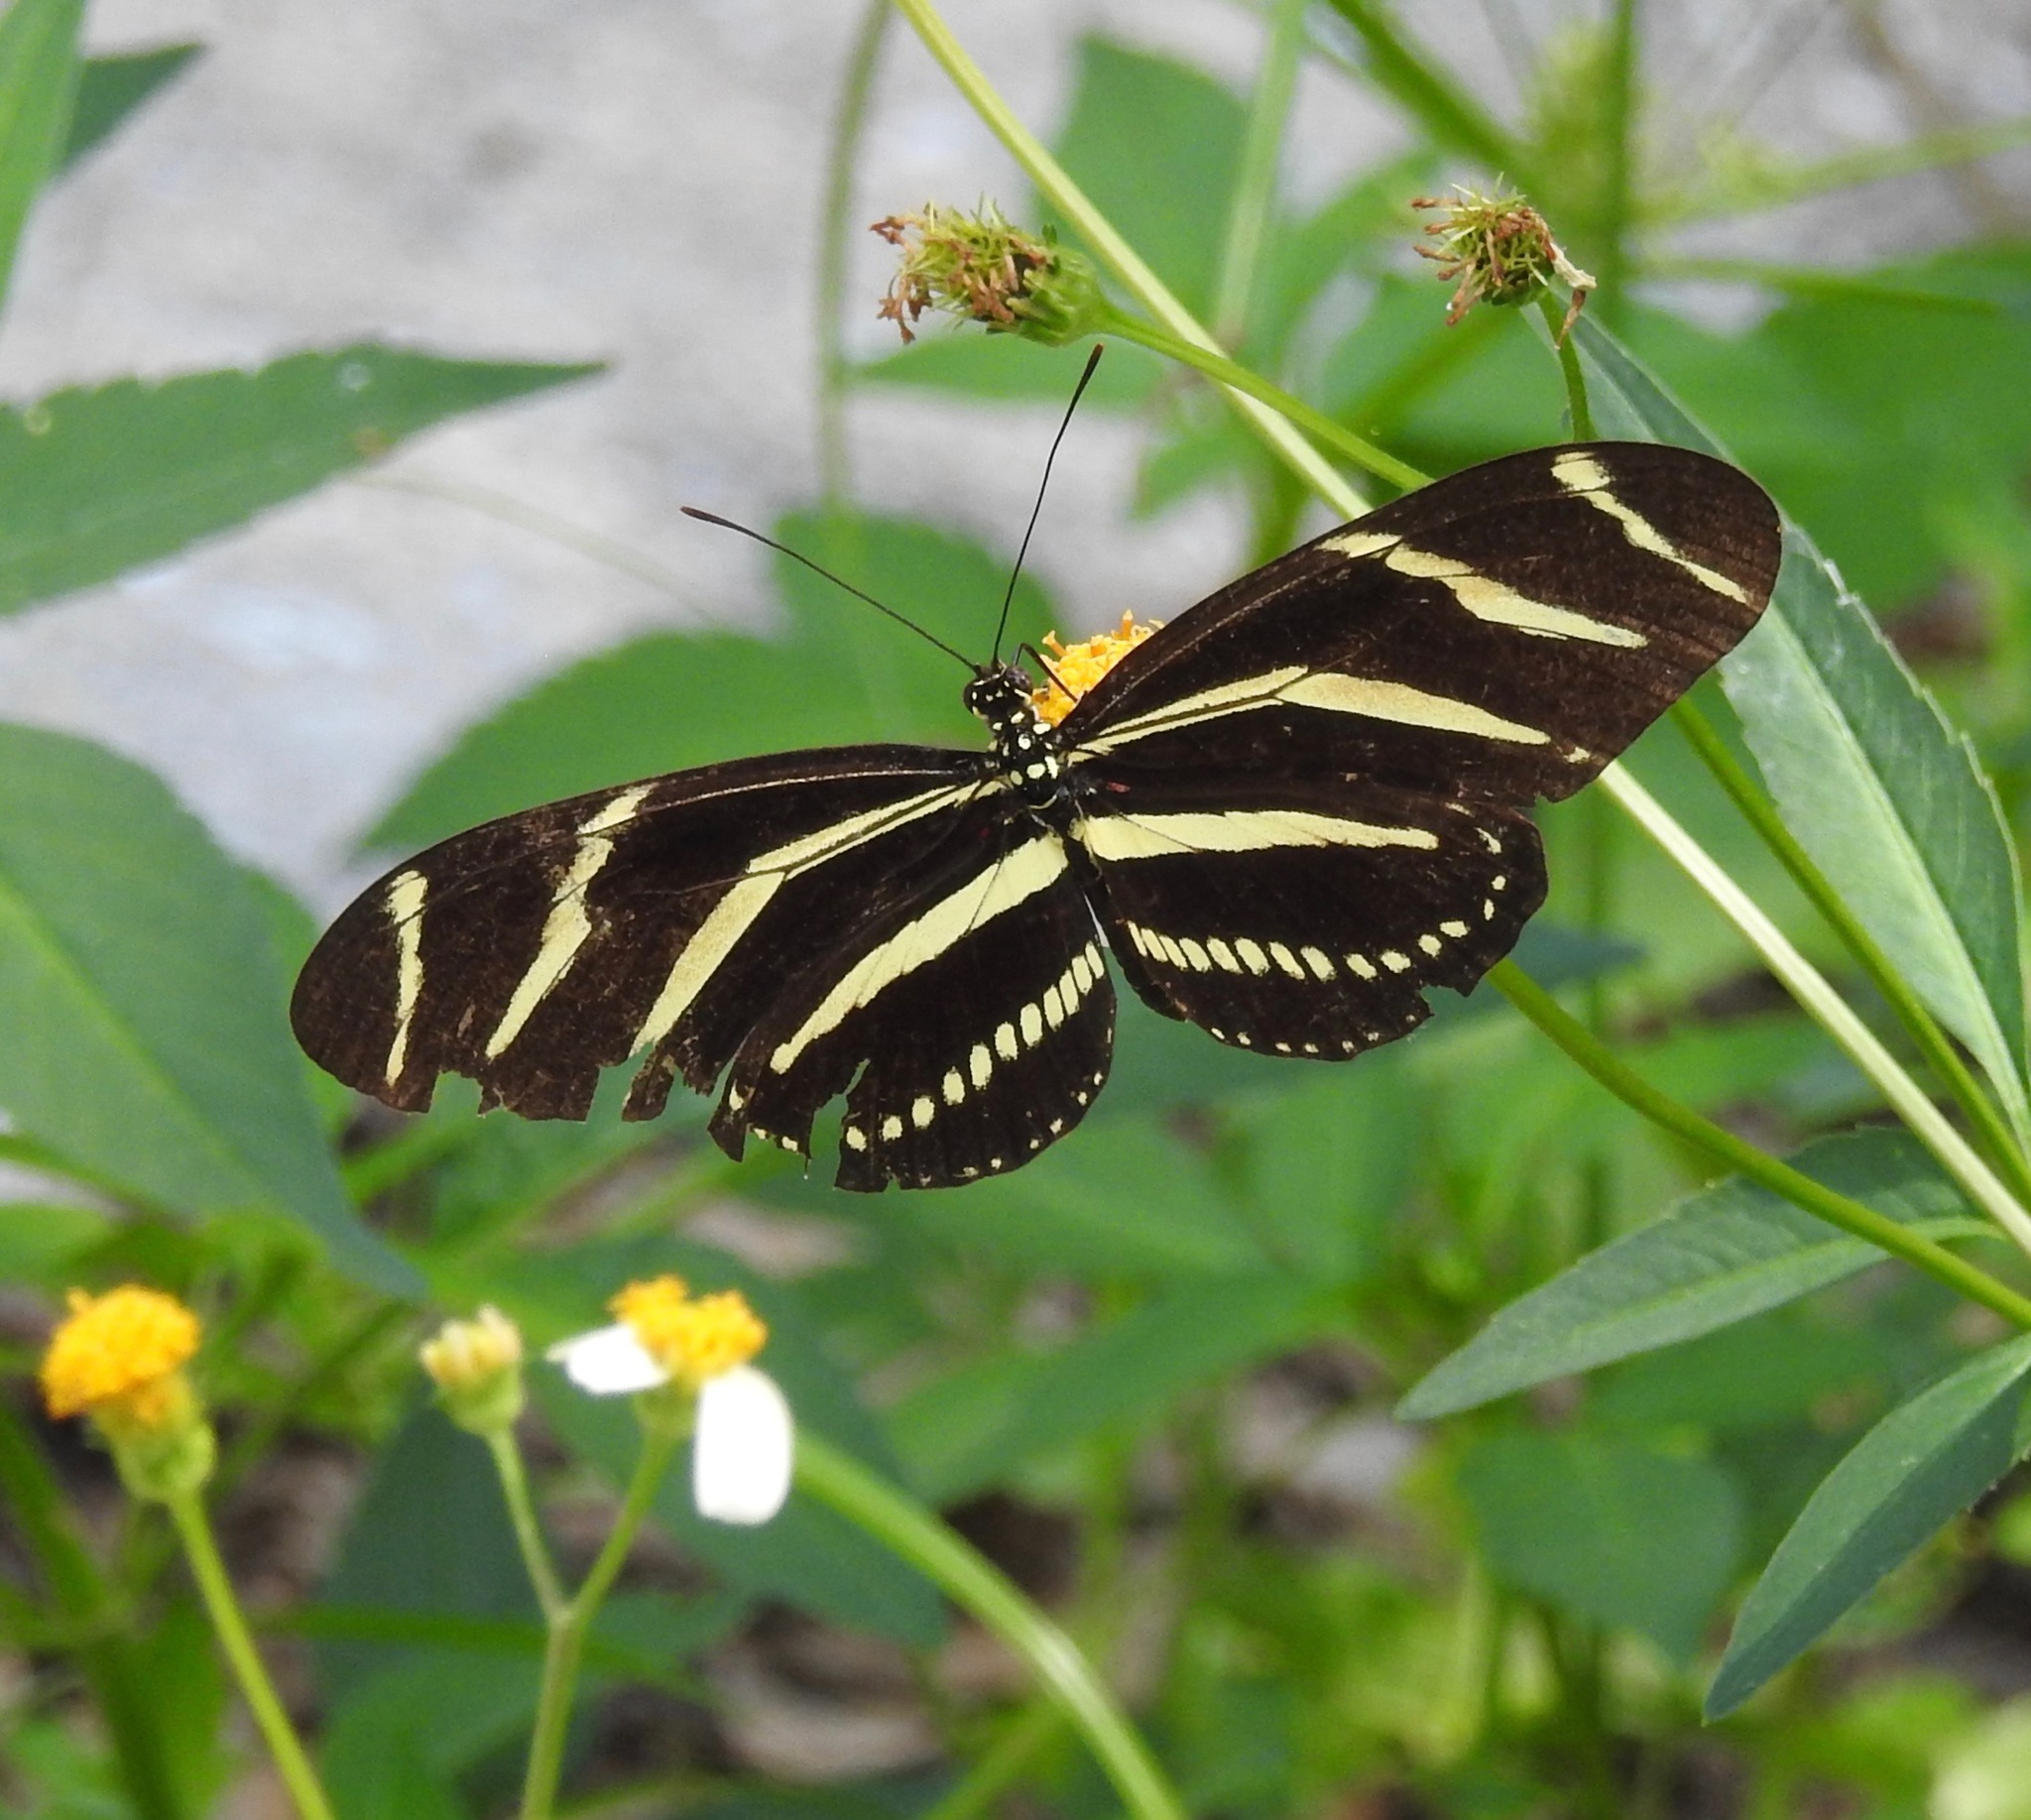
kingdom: Animalia
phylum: Arthropoda
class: Insecta
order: Lepidoptera
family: Nymphalidae
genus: Heliconius
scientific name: Heliconius charithonia
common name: Zebra long wing
